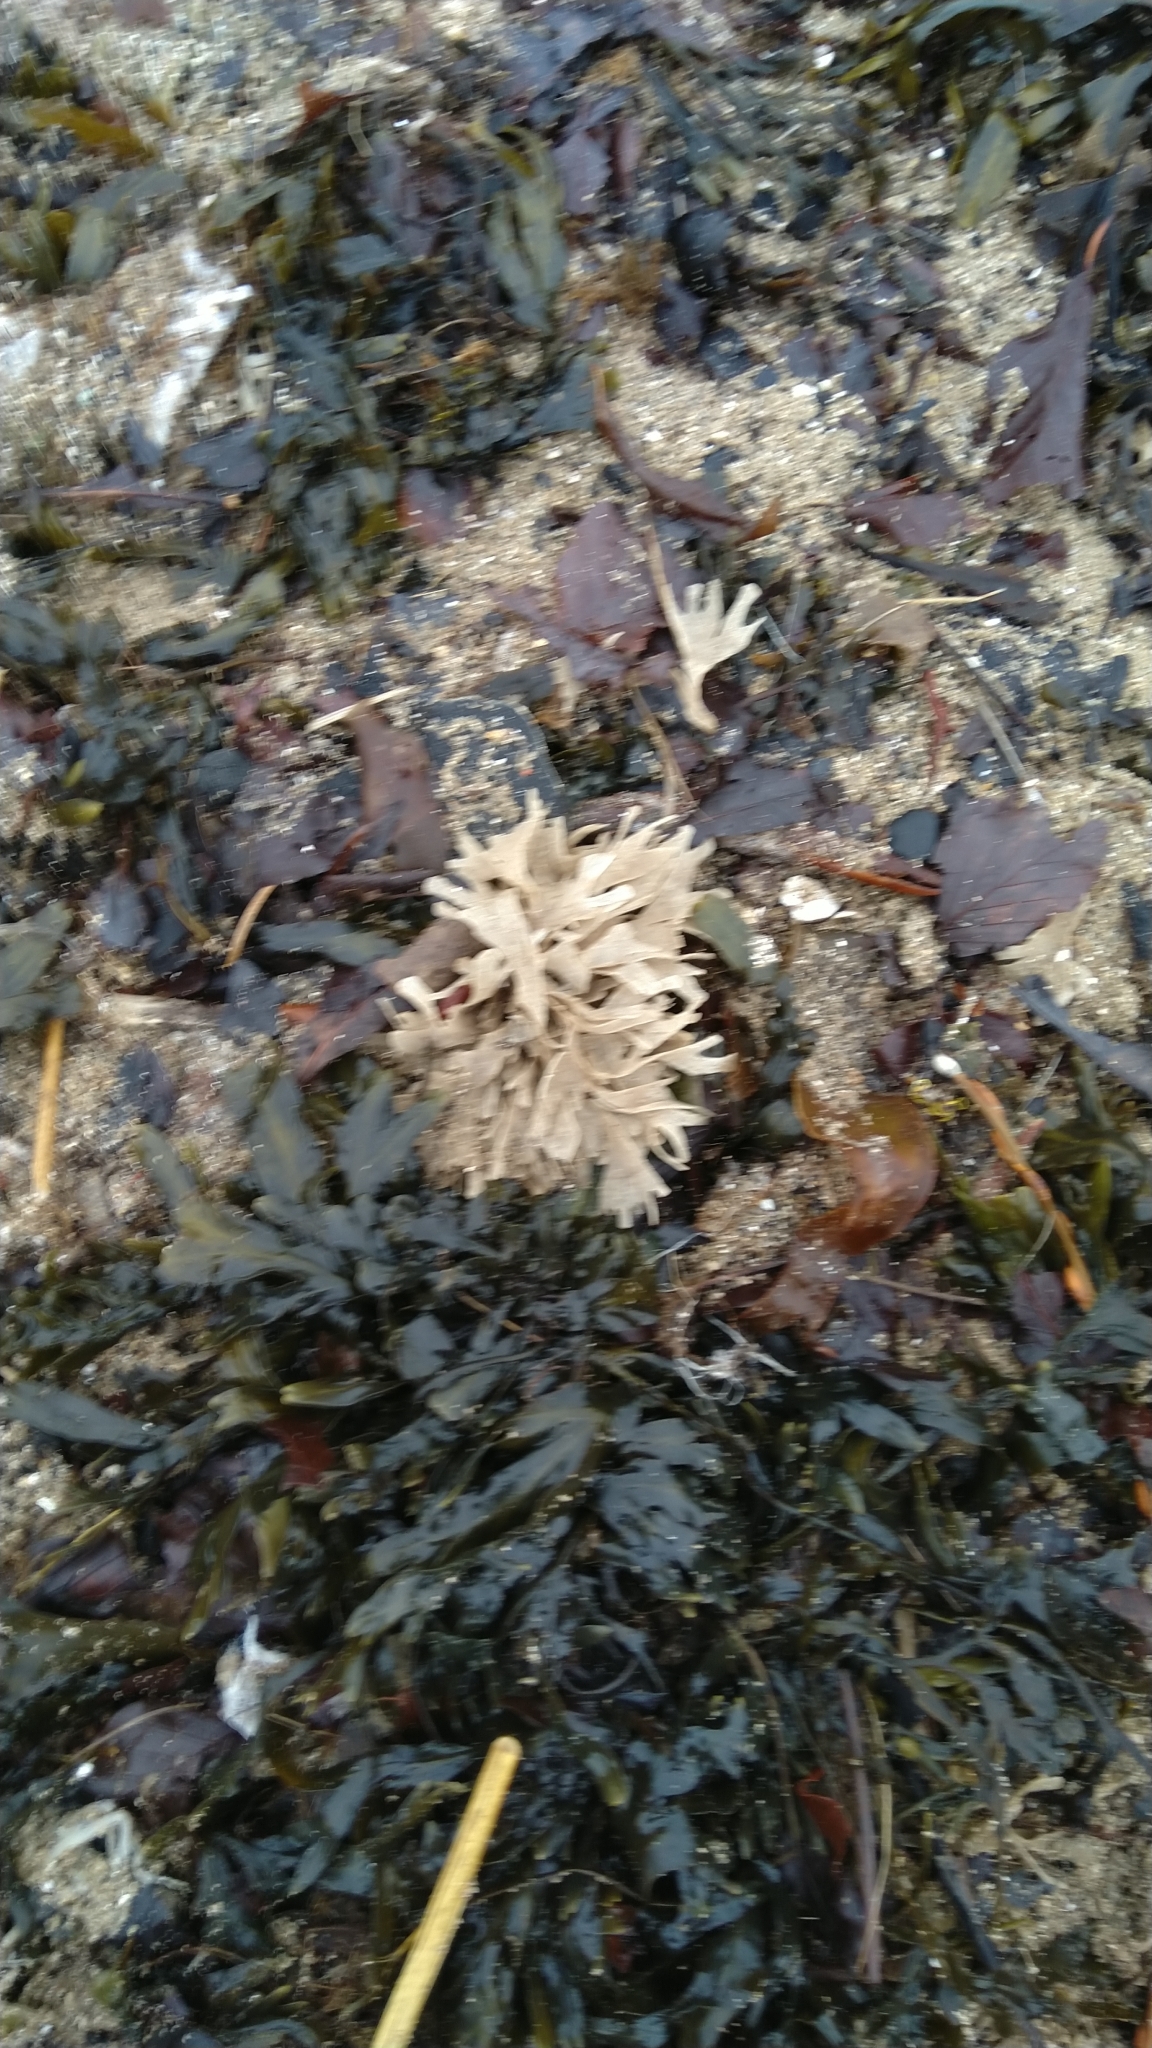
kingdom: Animalia
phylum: Bryozoa
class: Gymnolaemata
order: Cheilostomatida
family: Flustridae
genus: Flustra
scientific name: Flustra foliacea
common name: Hornwrack
